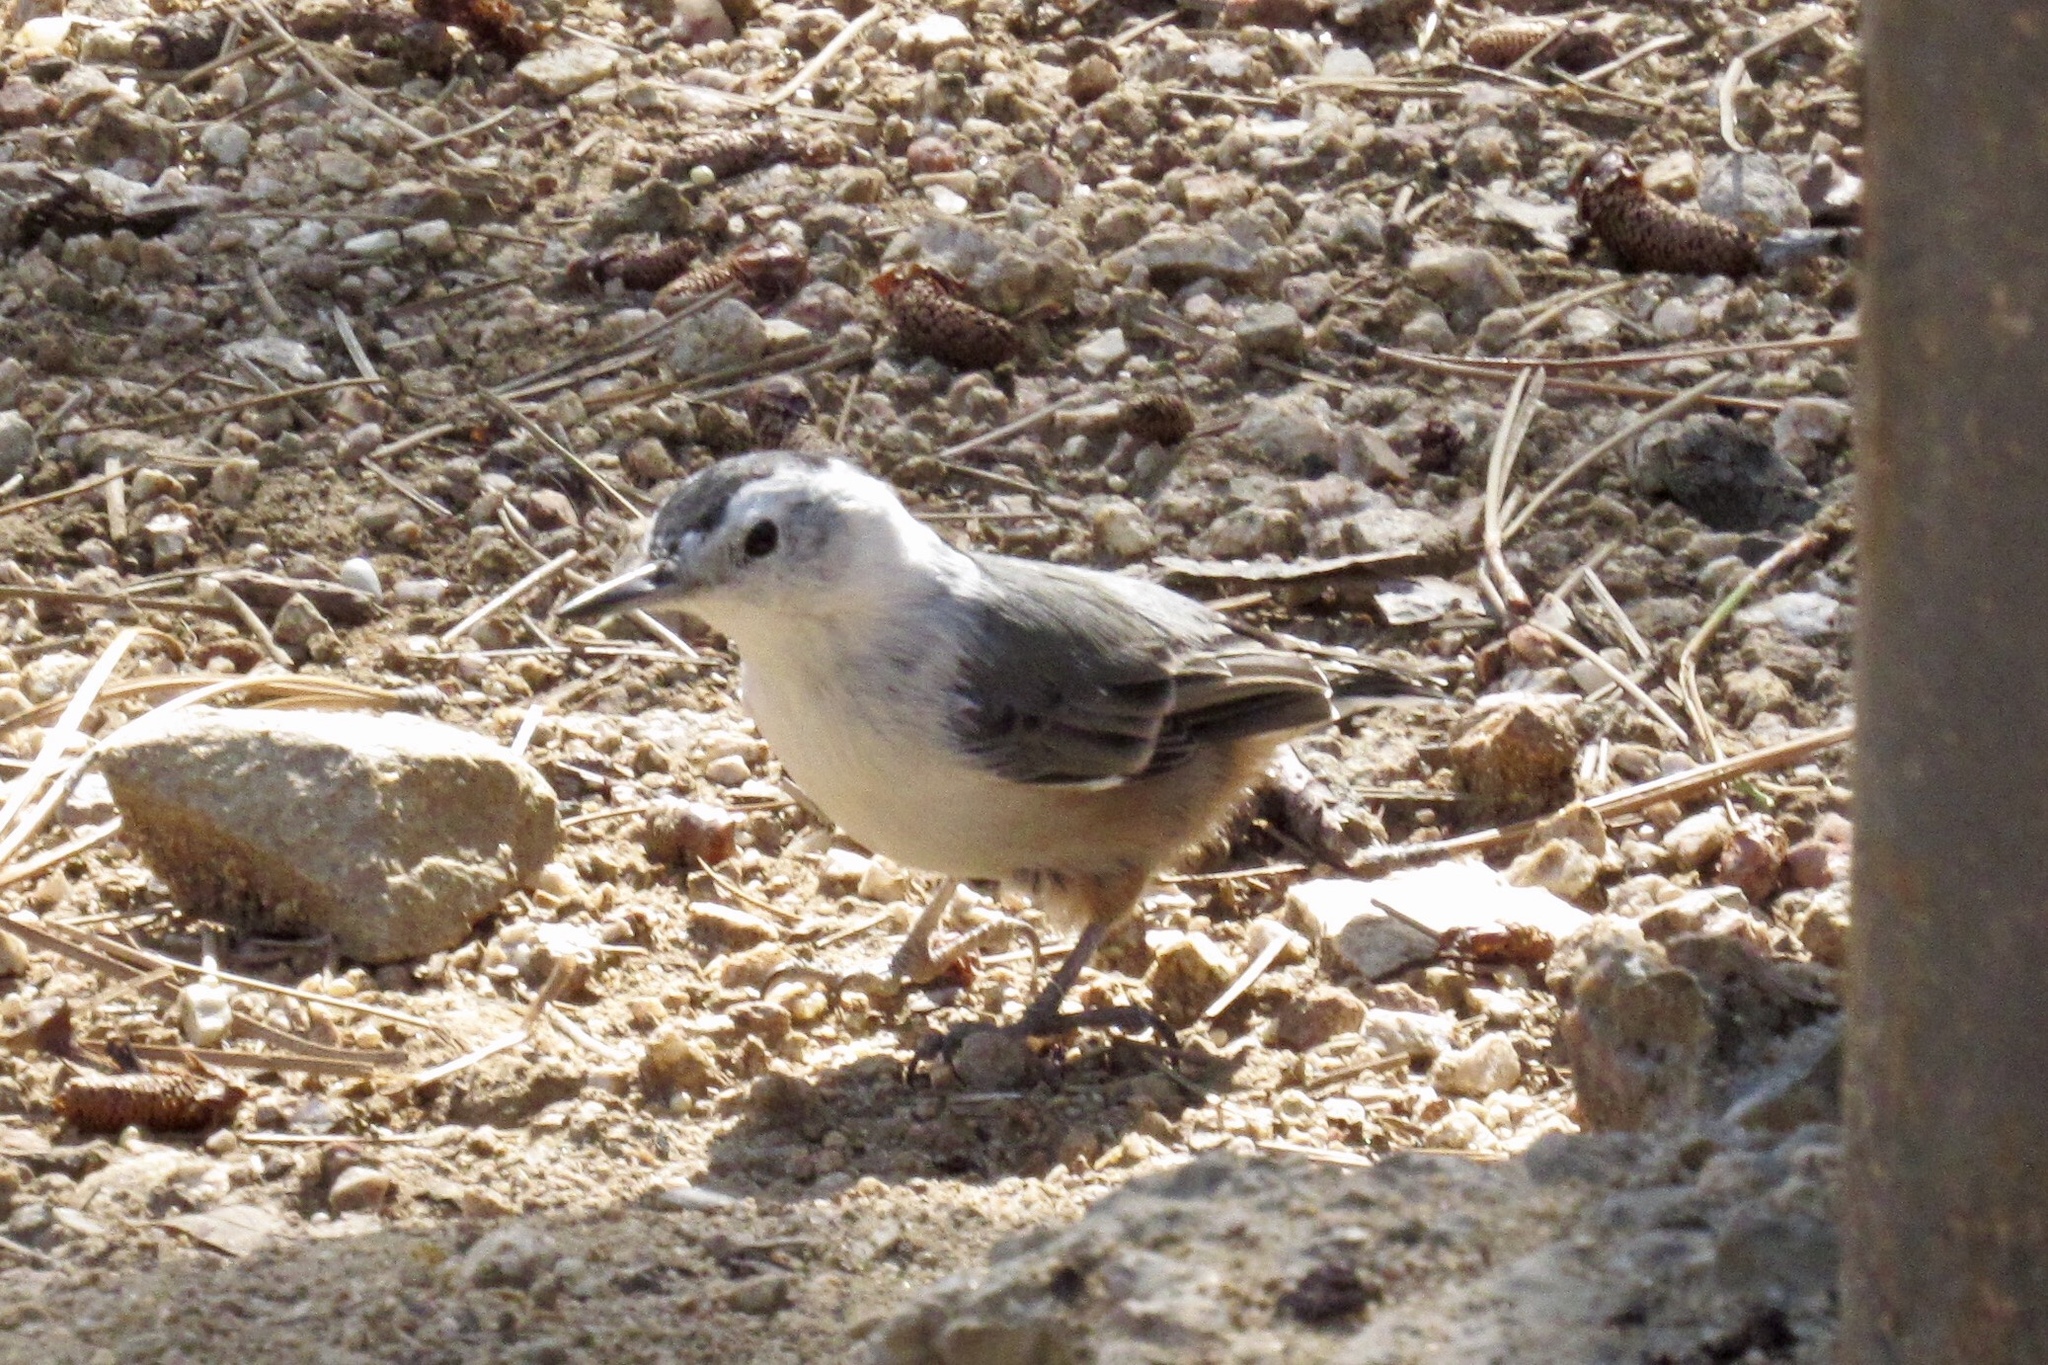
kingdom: Animalia
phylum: Chordata
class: Aves
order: Passeriformes
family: Sittidae
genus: Sitta
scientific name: Sitta carolinensis
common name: White-breasted nuthatch
